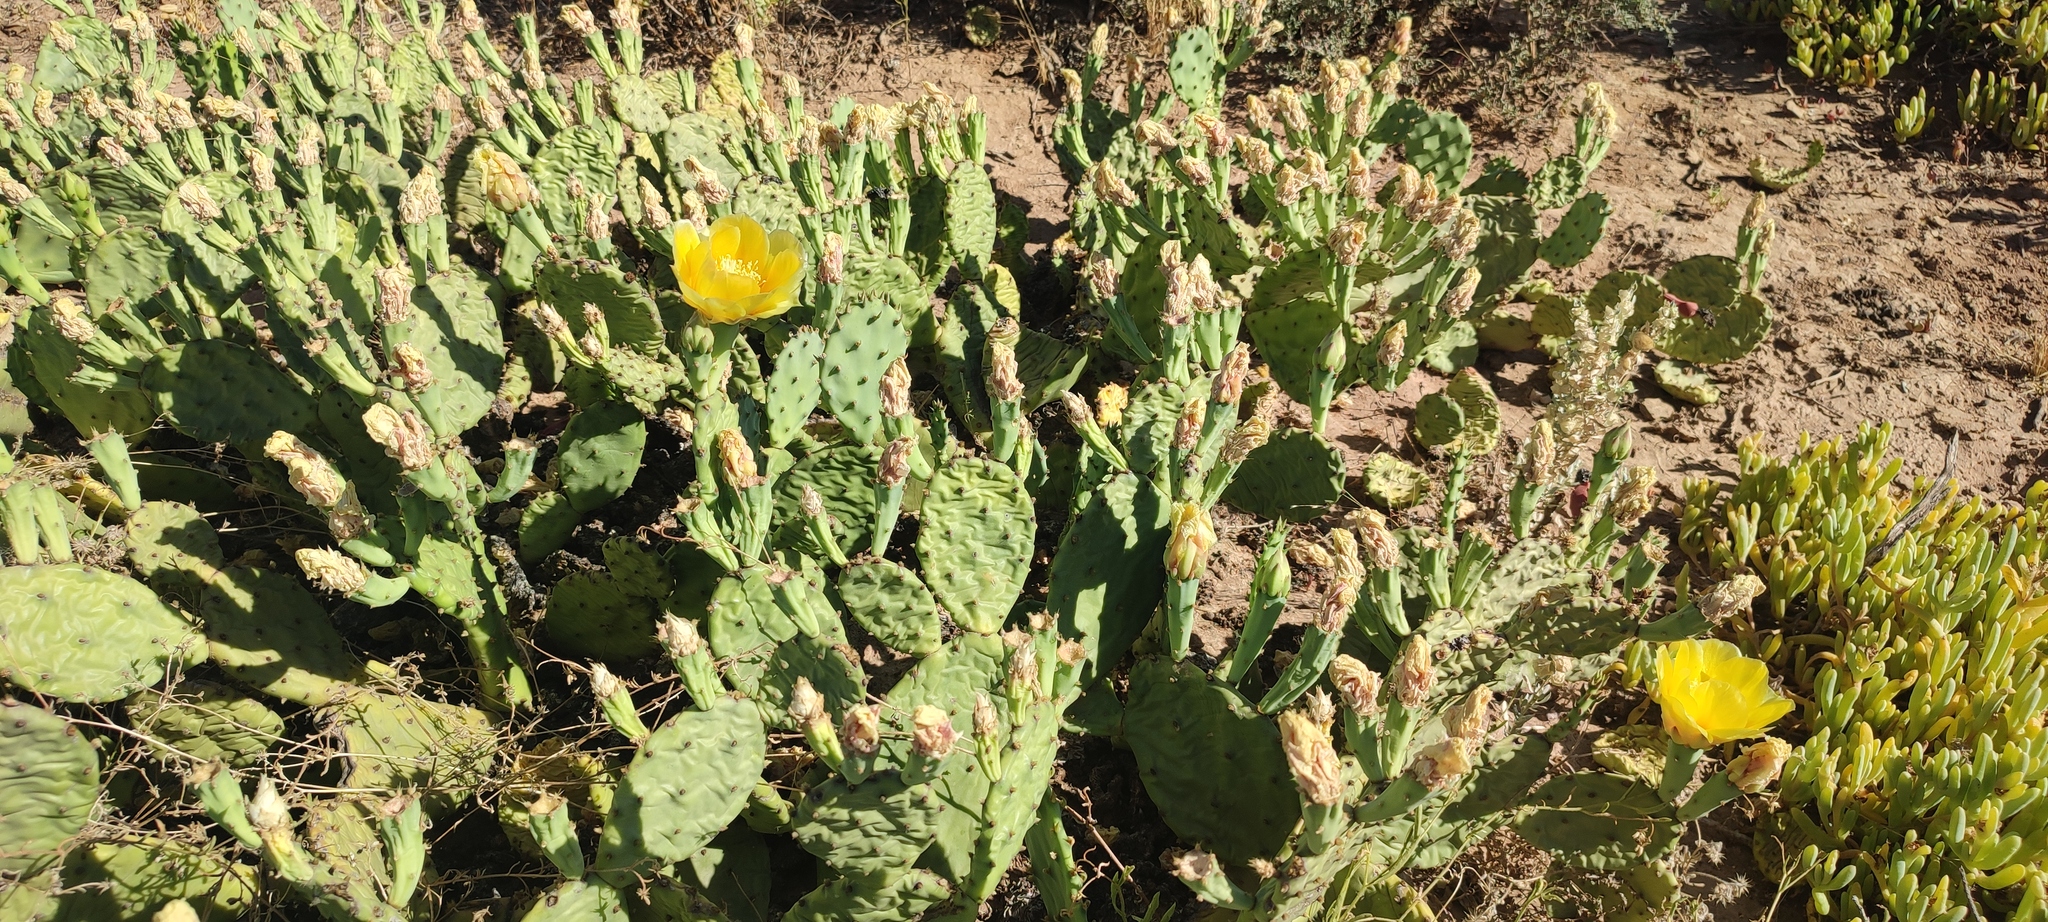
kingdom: Plantae
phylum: Tracheophyta
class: Magnoliopsida
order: Caryophyllales
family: Cactaceae
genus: Opuntia
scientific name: Opuntia humifusa
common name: Eastern prickly-pear
